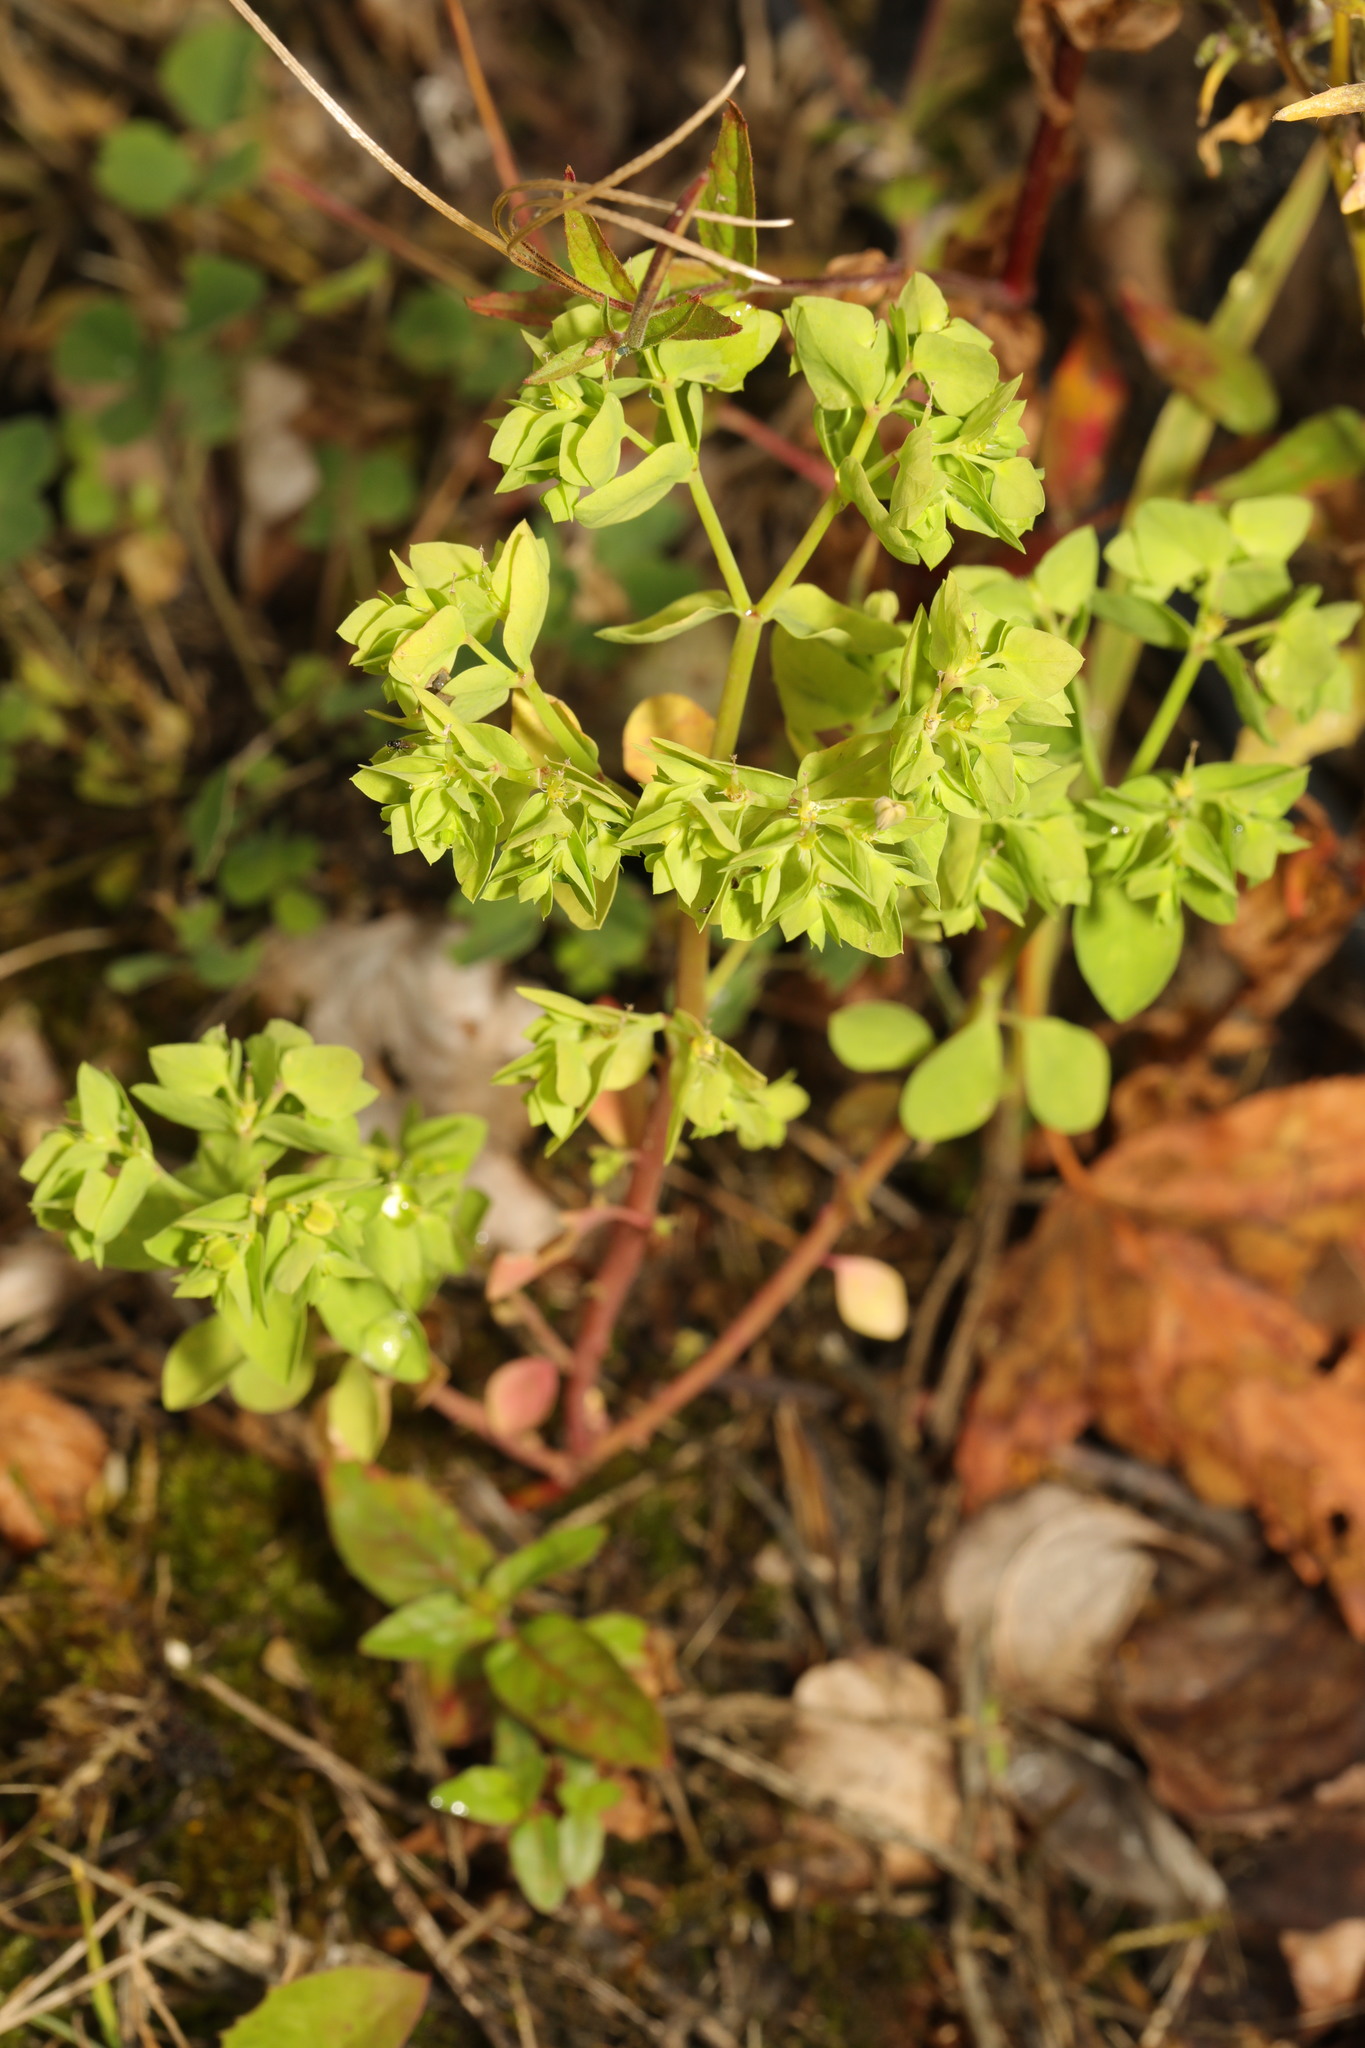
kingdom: Plantae
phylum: Tracheophyta
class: Magnoliopsida
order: Malpighiales
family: Euphorbiaceae
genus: Euphorbia
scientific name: Euphorbia peplus
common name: Petty spurge
